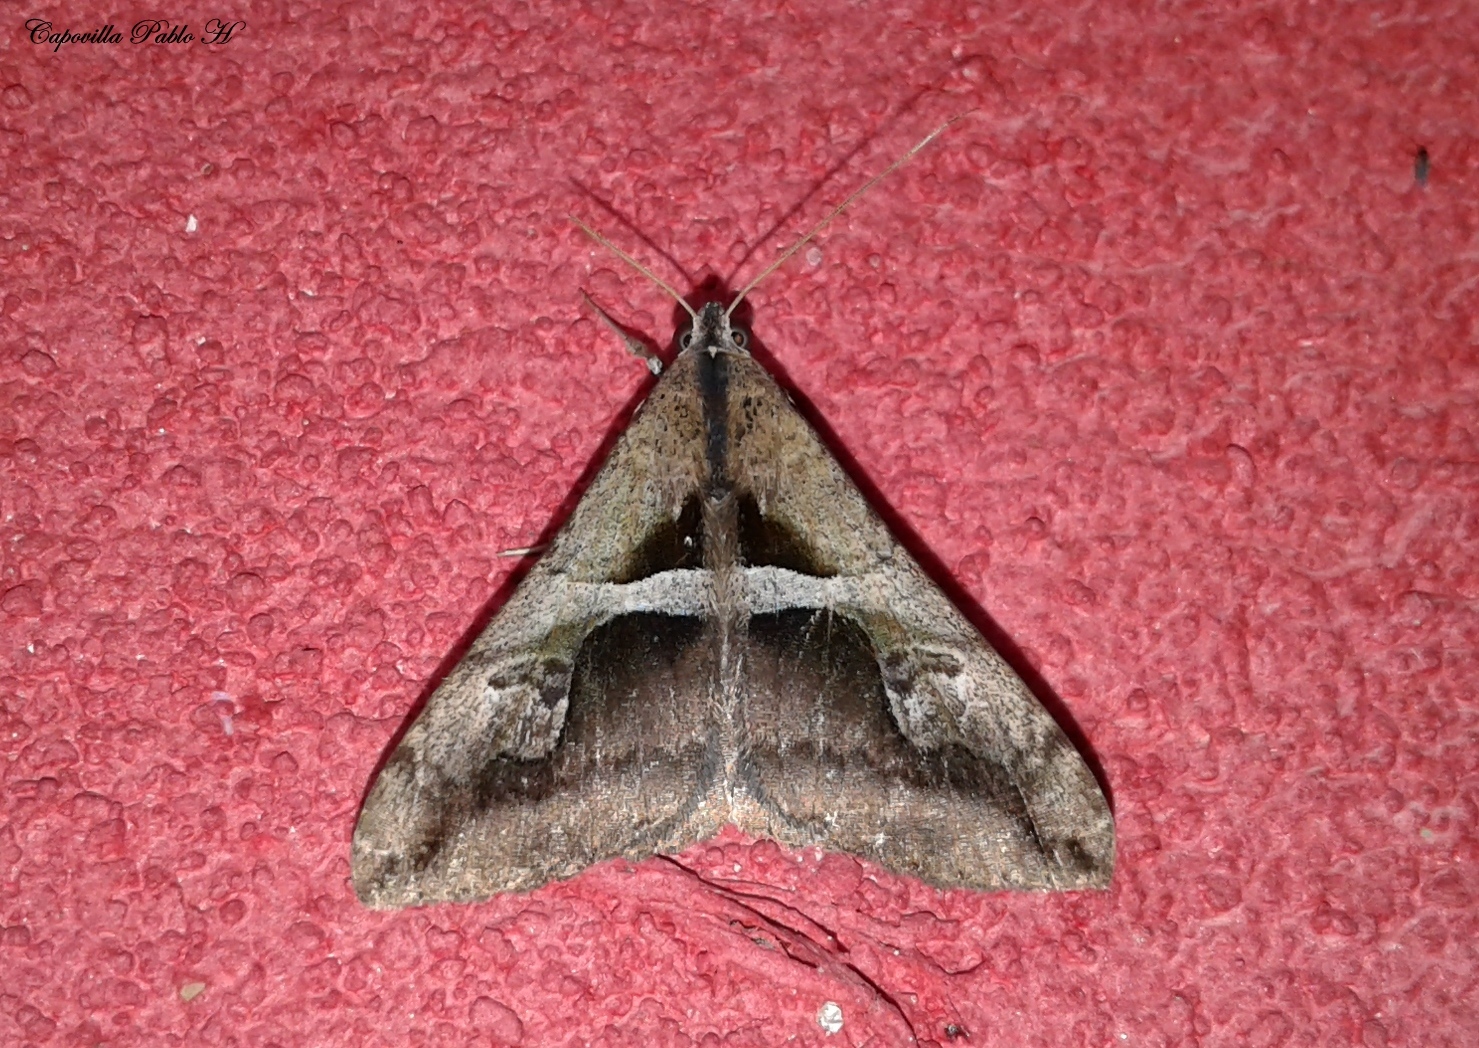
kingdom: Animalia
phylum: Arthropoda
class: Insecta
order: Lepidoptera
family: Erebidae
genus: Melipotis
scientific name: Melipotis cellaris
